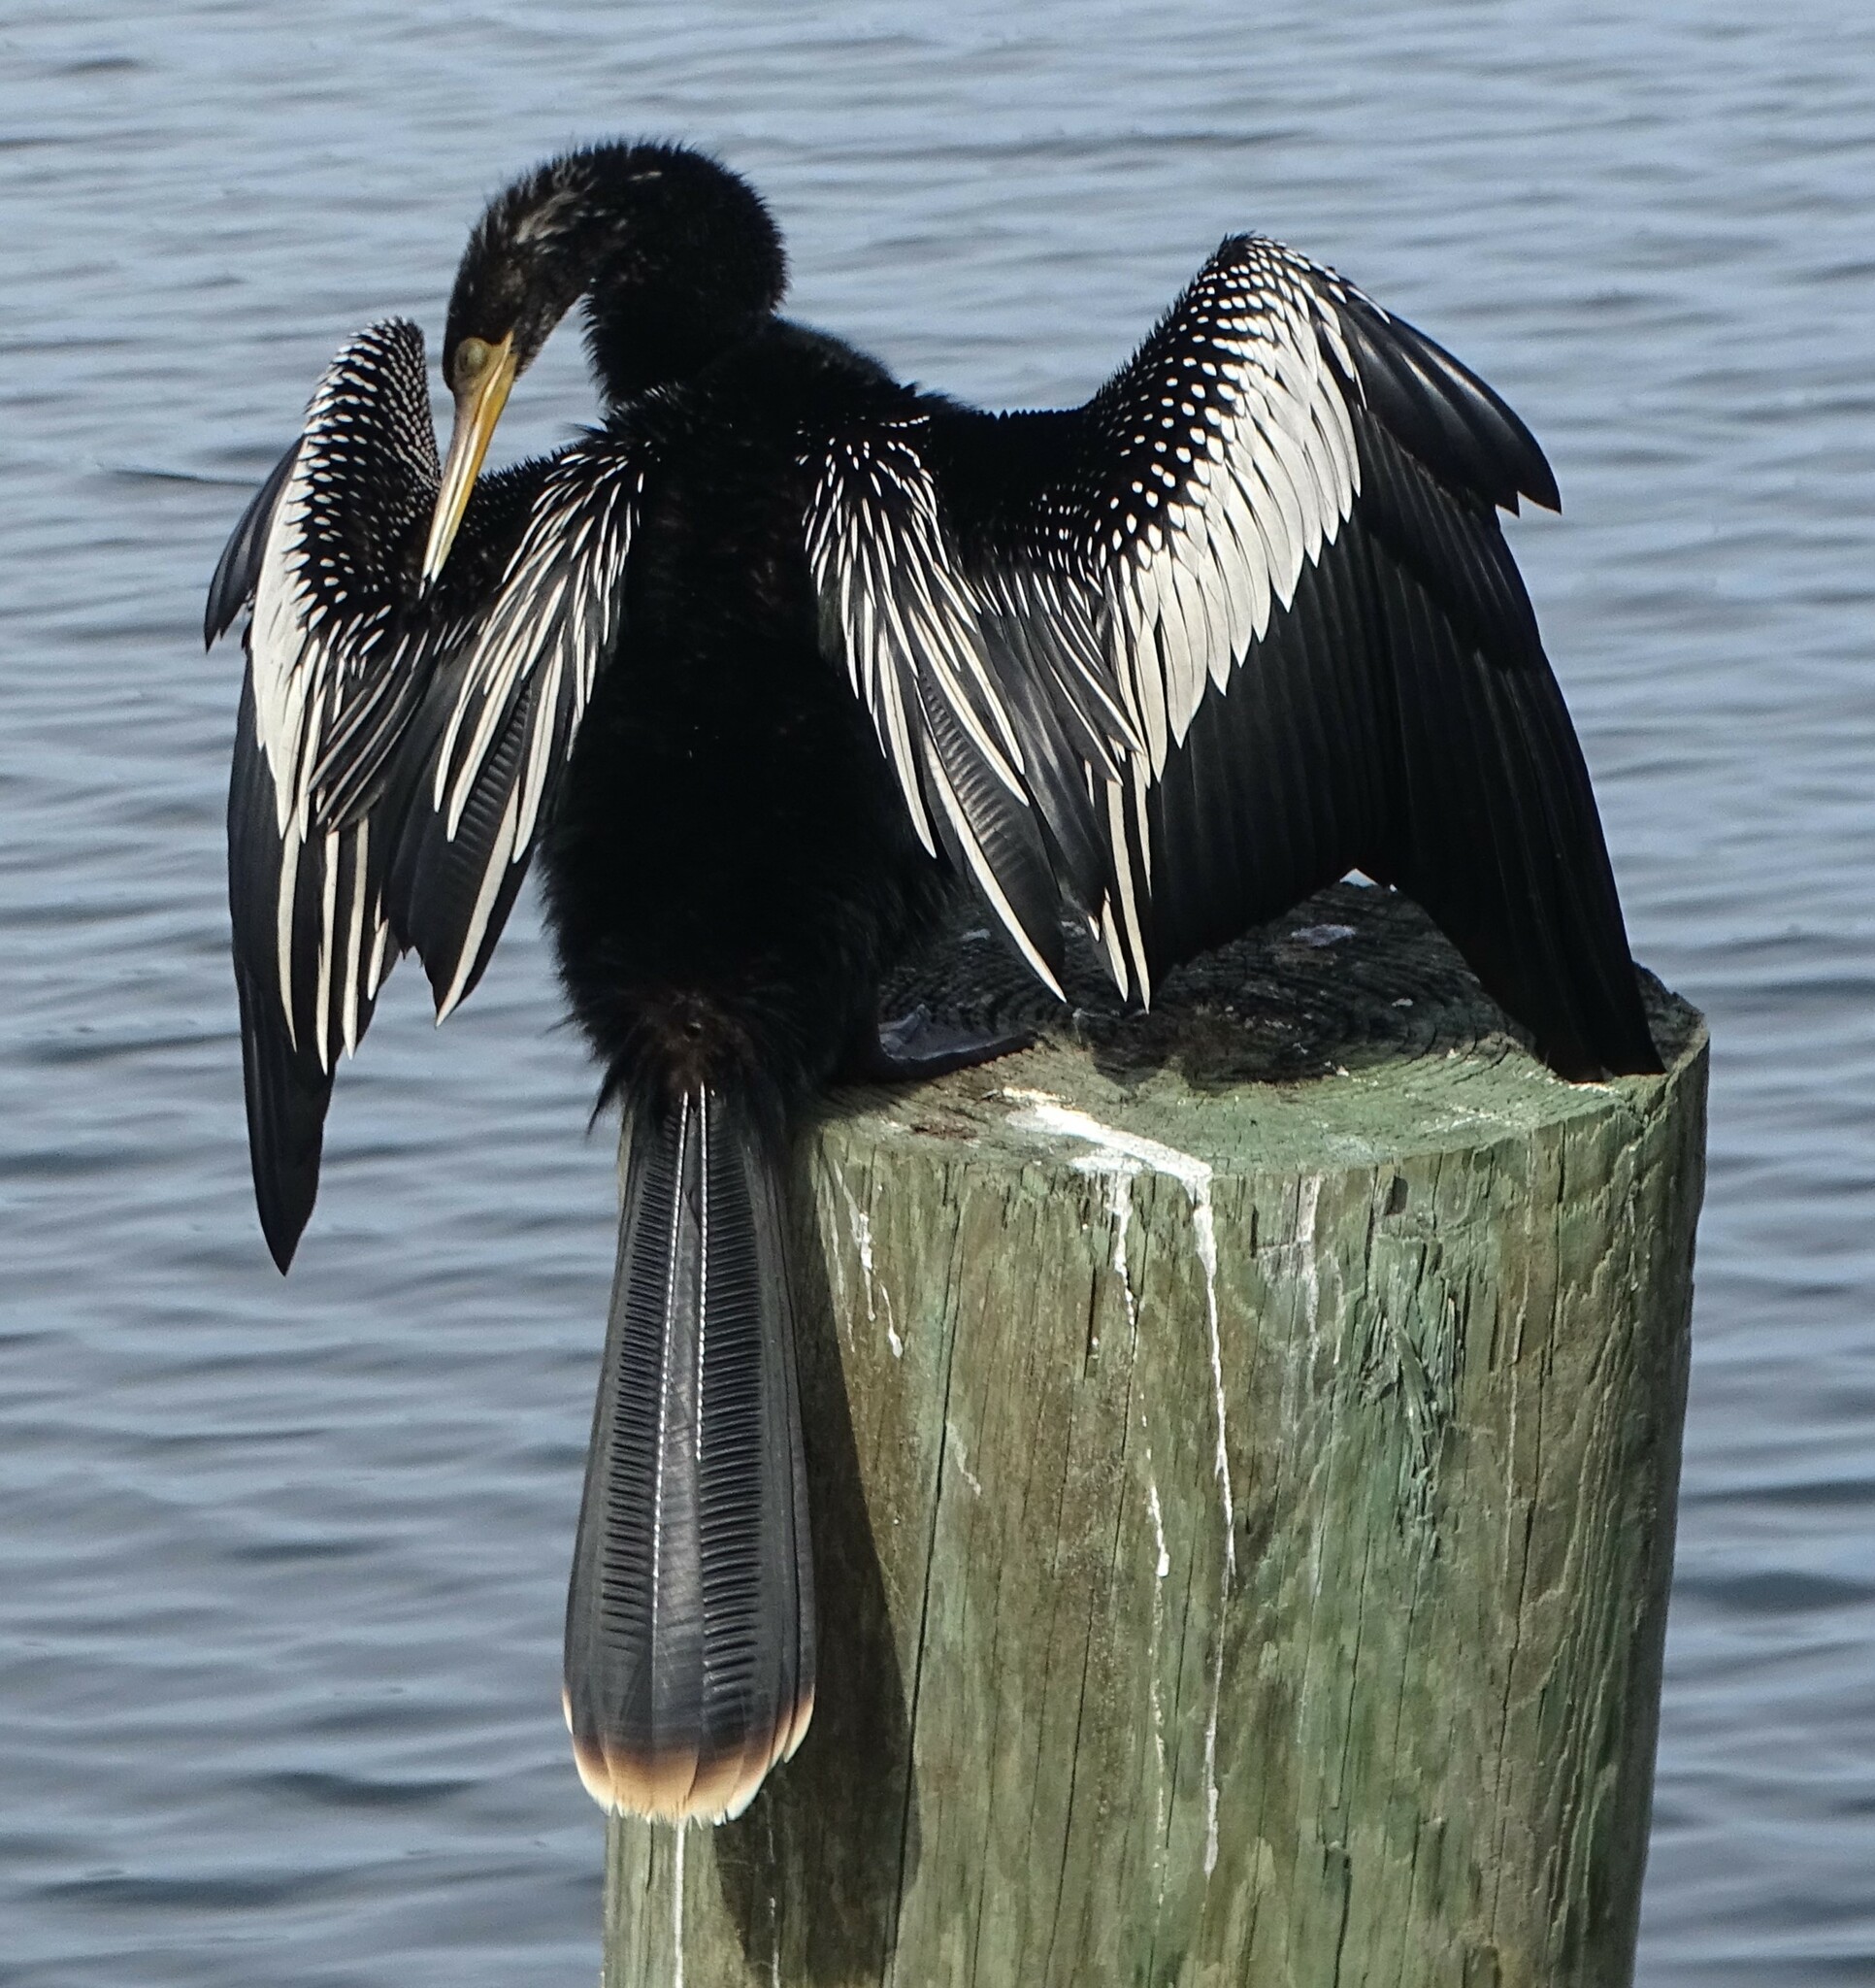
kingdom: Animalia
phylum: Chordata
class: Aves
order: Suliformes
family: Anhingidae
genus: Anhinga
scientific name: Anhinga anhinga
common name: Anhinga
